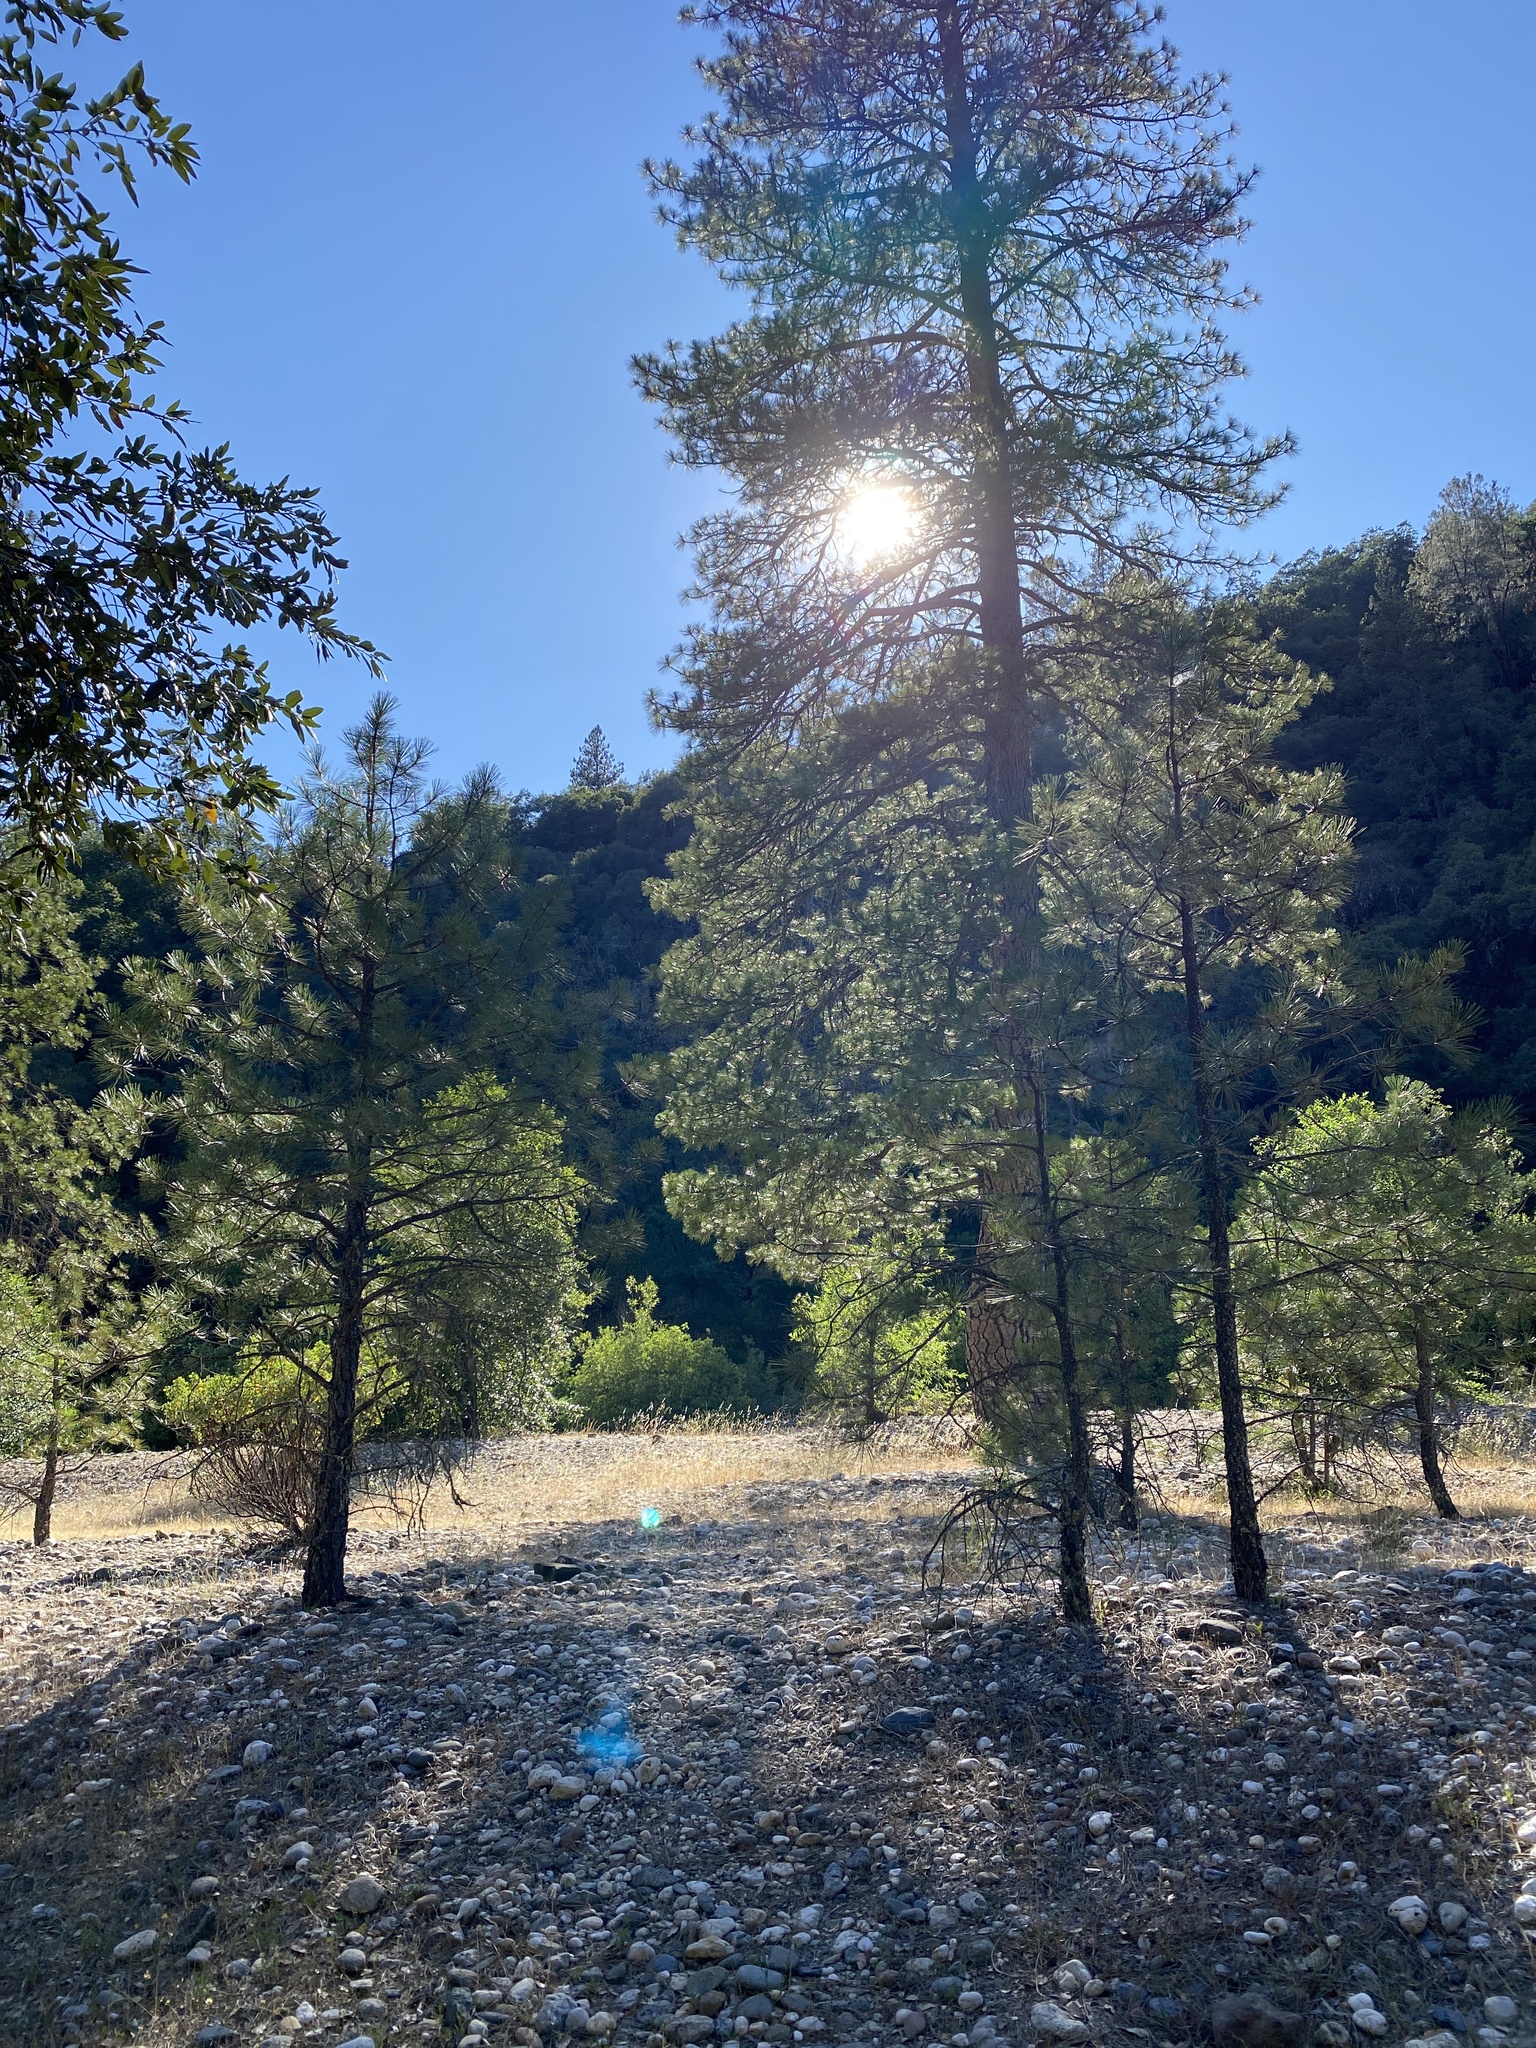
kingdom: Plantae
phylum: Tracheophyta
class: Pinopsida
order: Pinales
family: Pinaceae
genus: Pinus
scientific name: Pinus ponderosa
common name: Western yellow-pine
